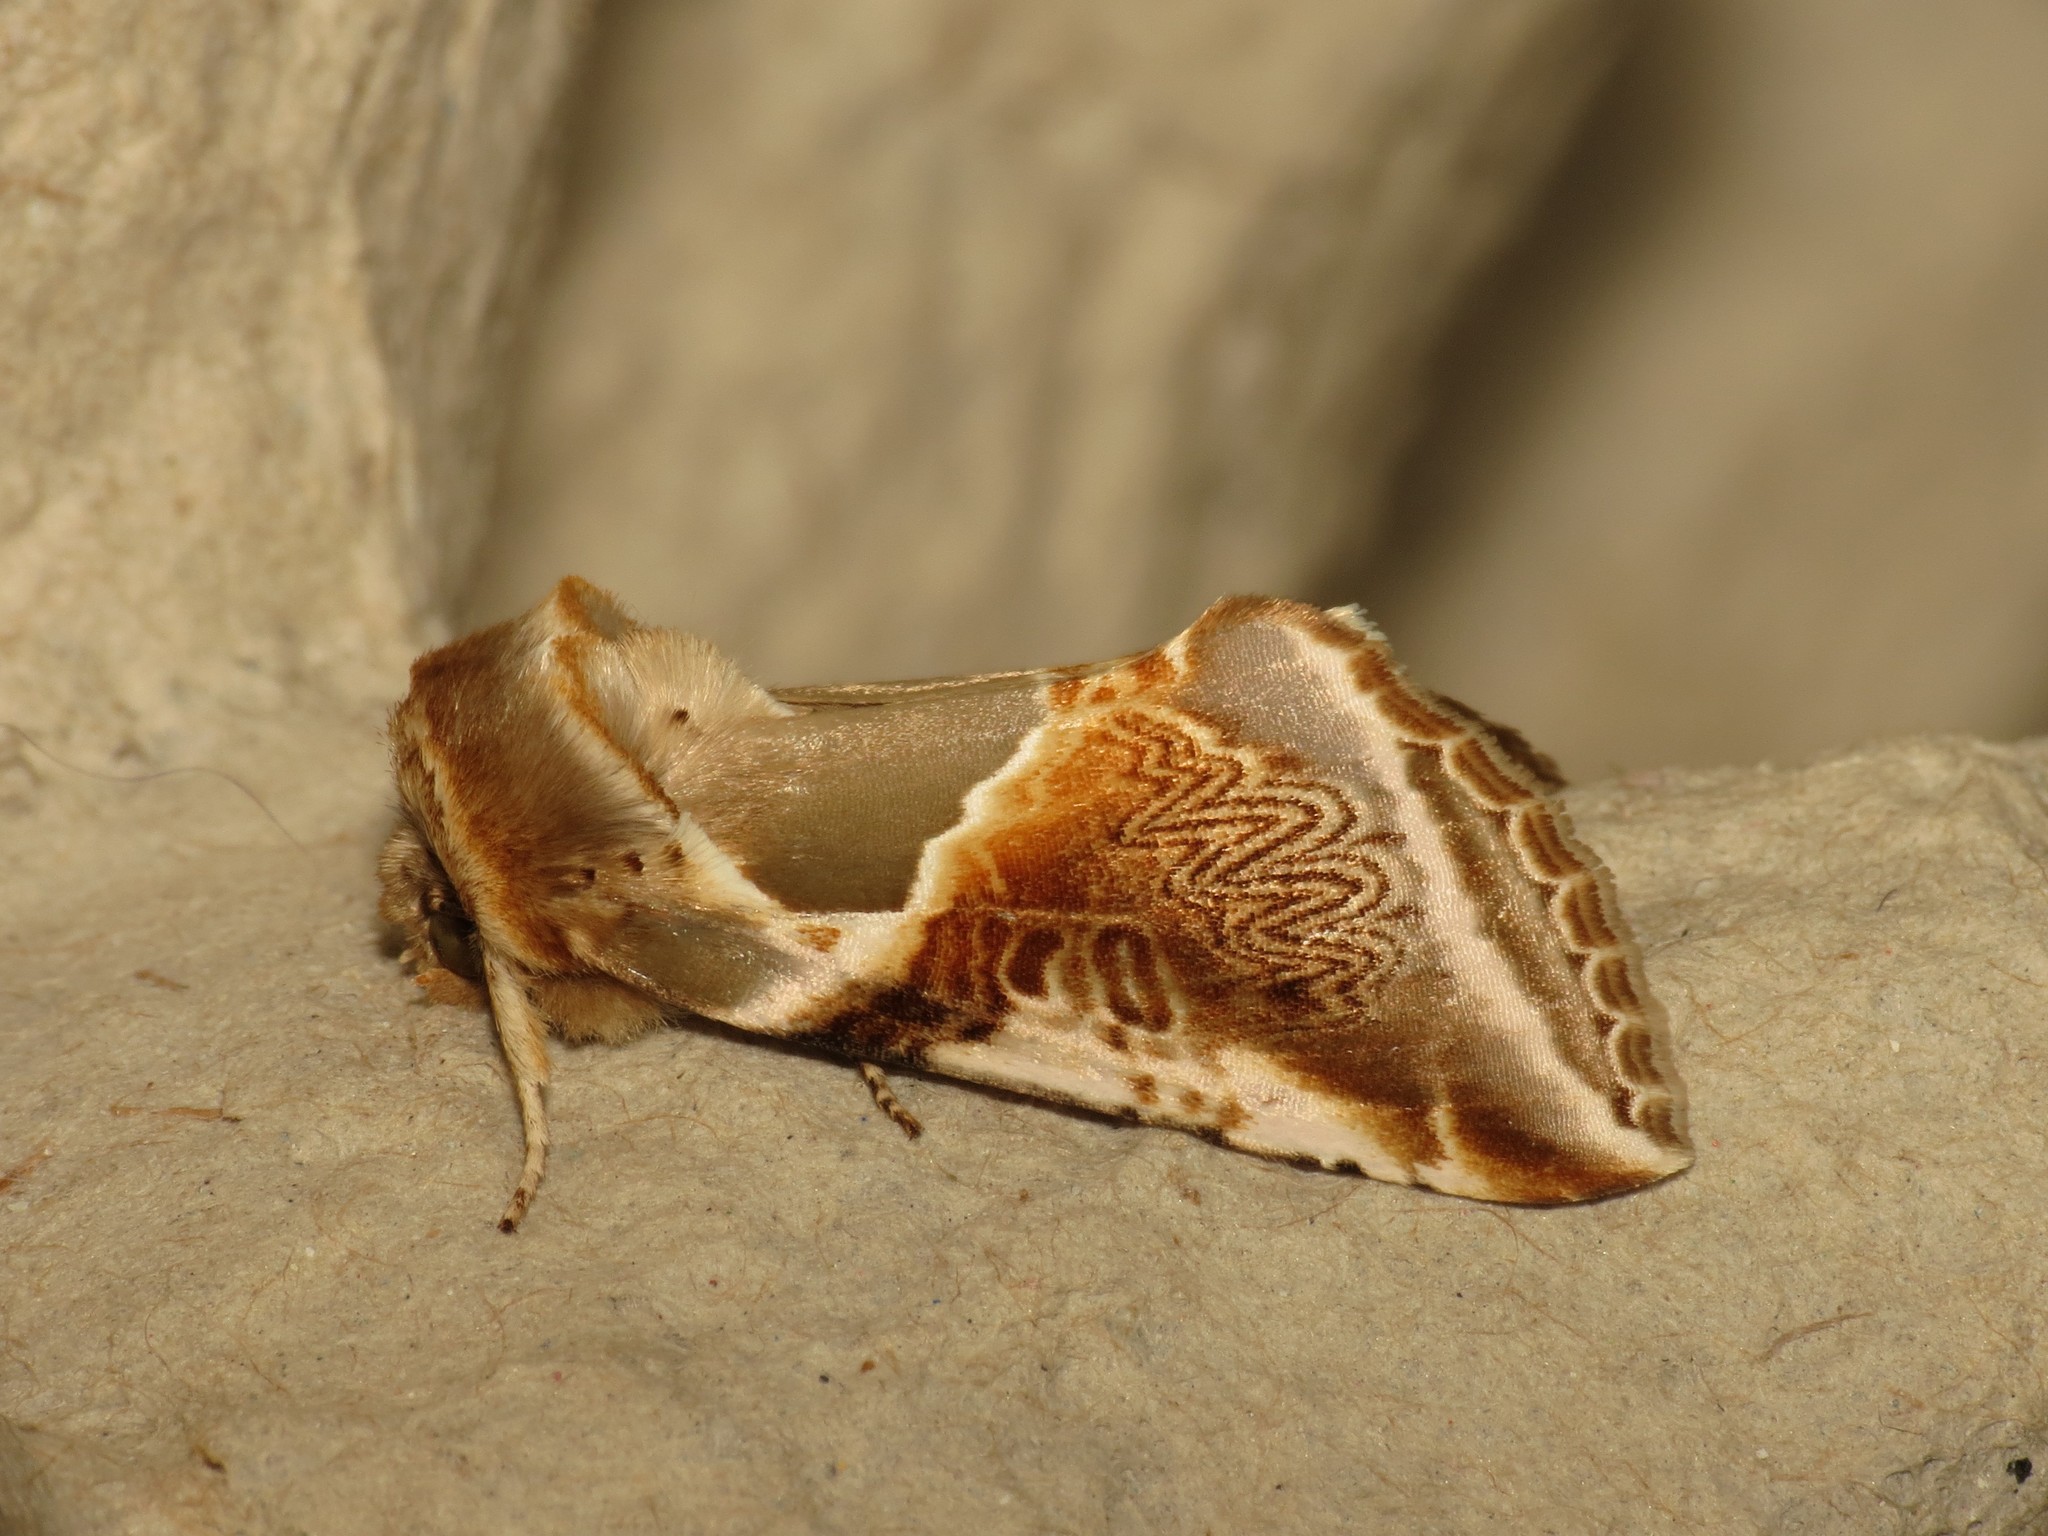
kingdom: Animalia
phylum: Arthropoda
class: Insecta
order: Lepidoptera
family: Drepanidae
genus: Habrosyne
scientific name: Habrosyne pyritoides
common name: Buff arches
